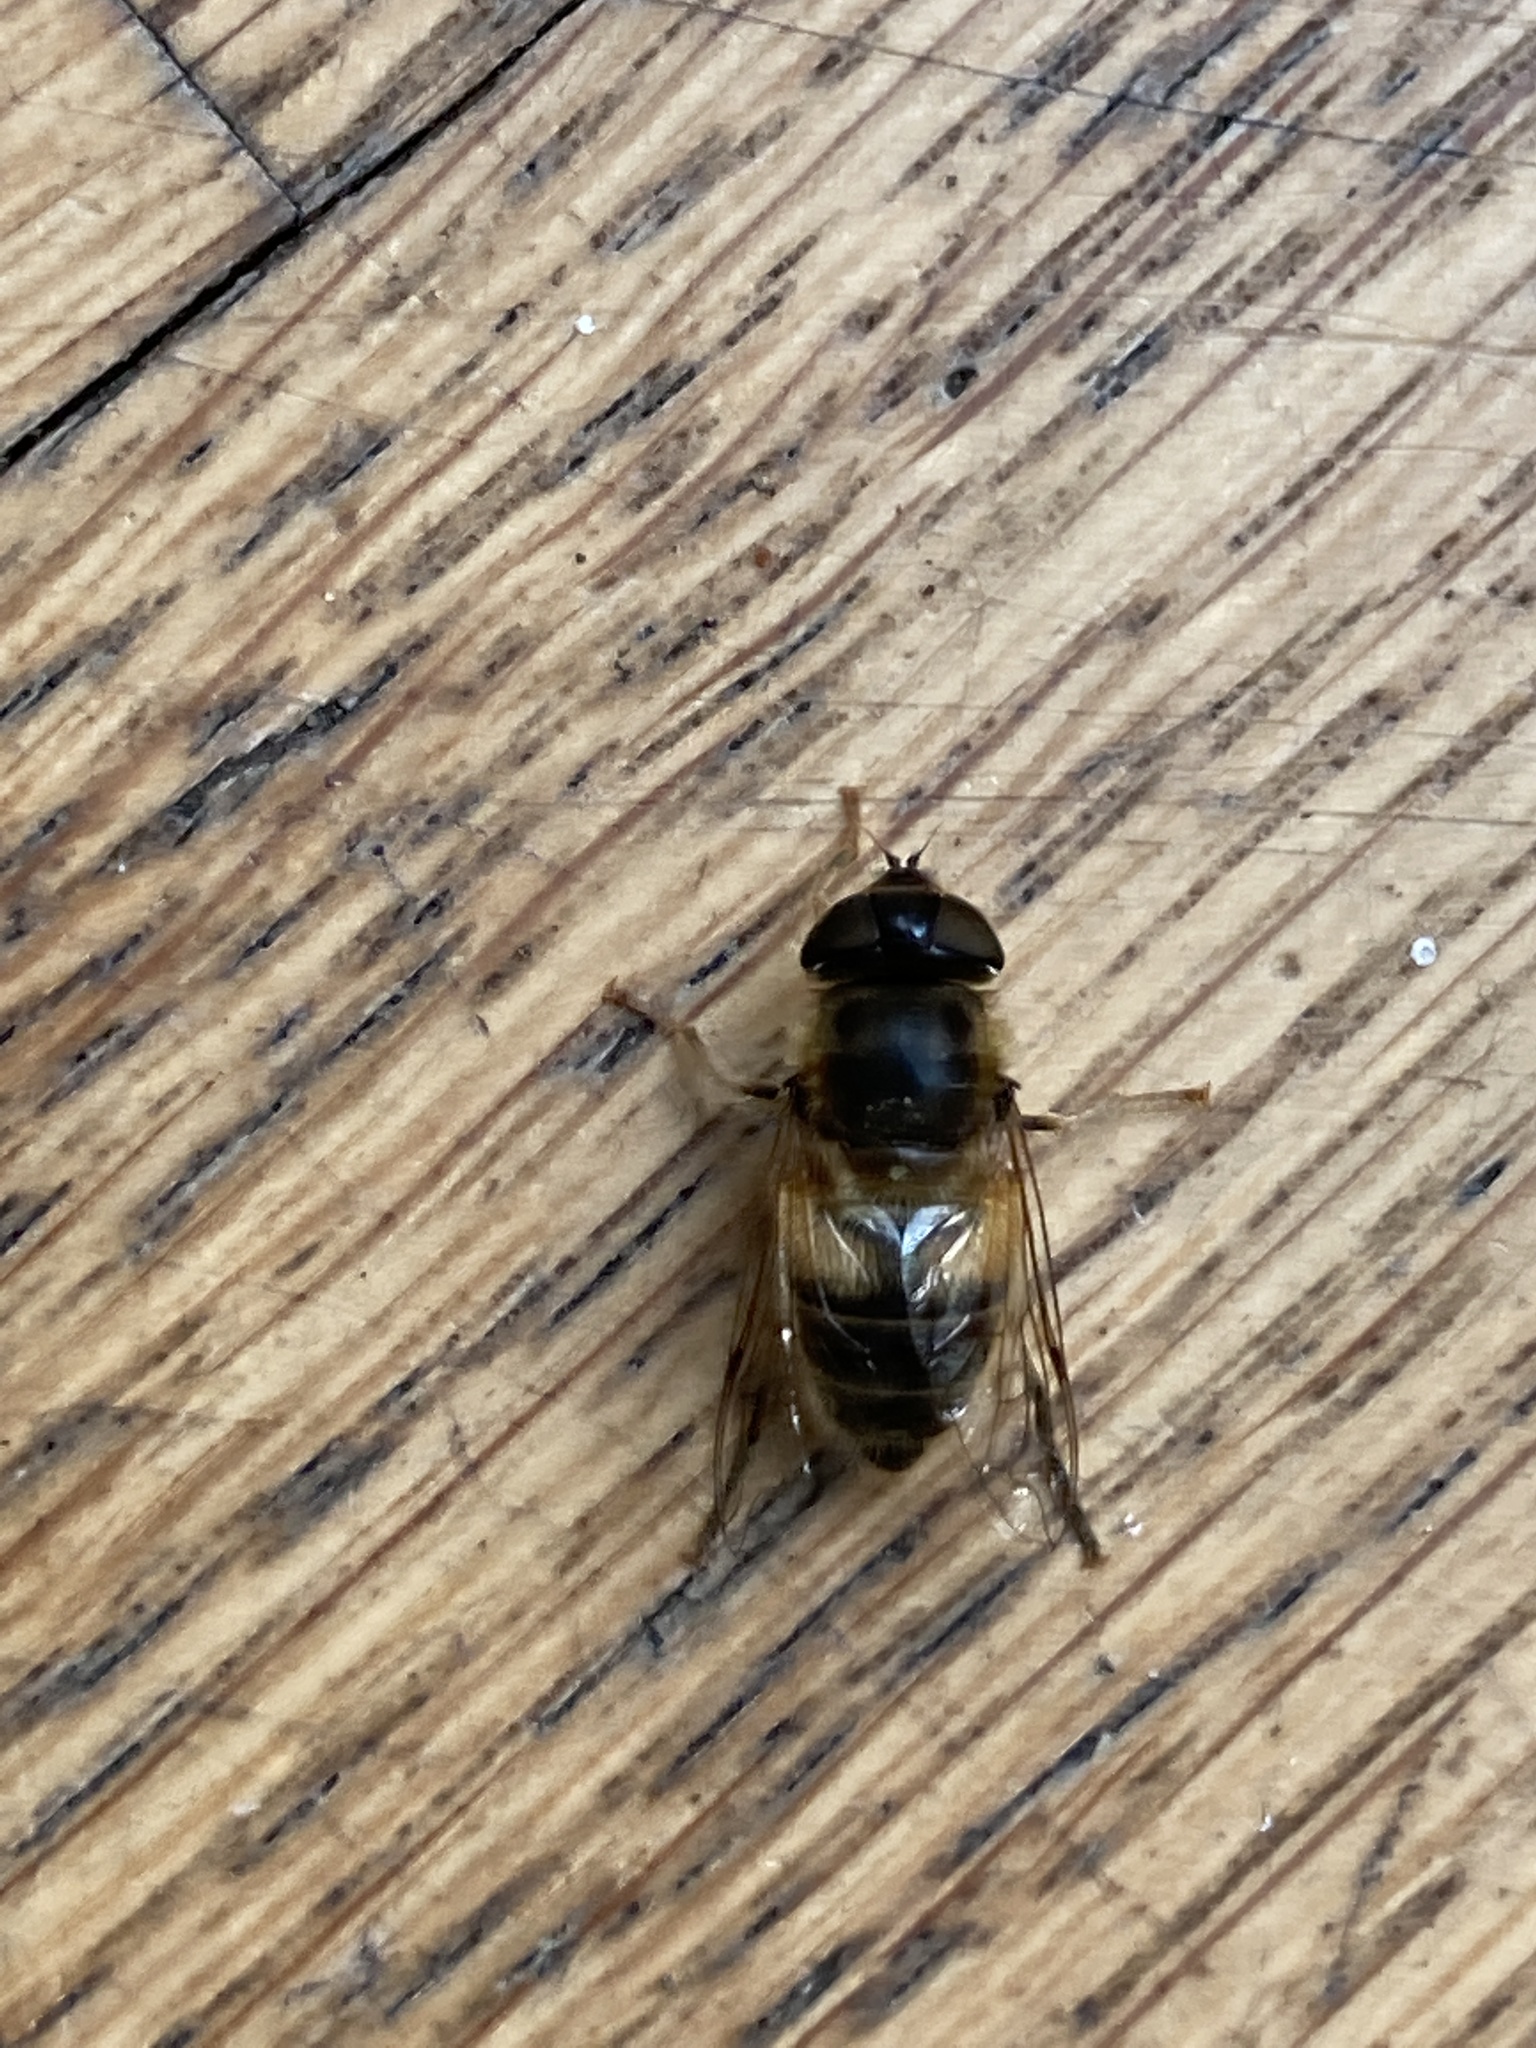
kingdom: Animalia
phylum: Arthropoda
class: Insecta
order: Diptera
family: Syrphidae
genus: Eristalis
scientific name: Eristalis pertinax
